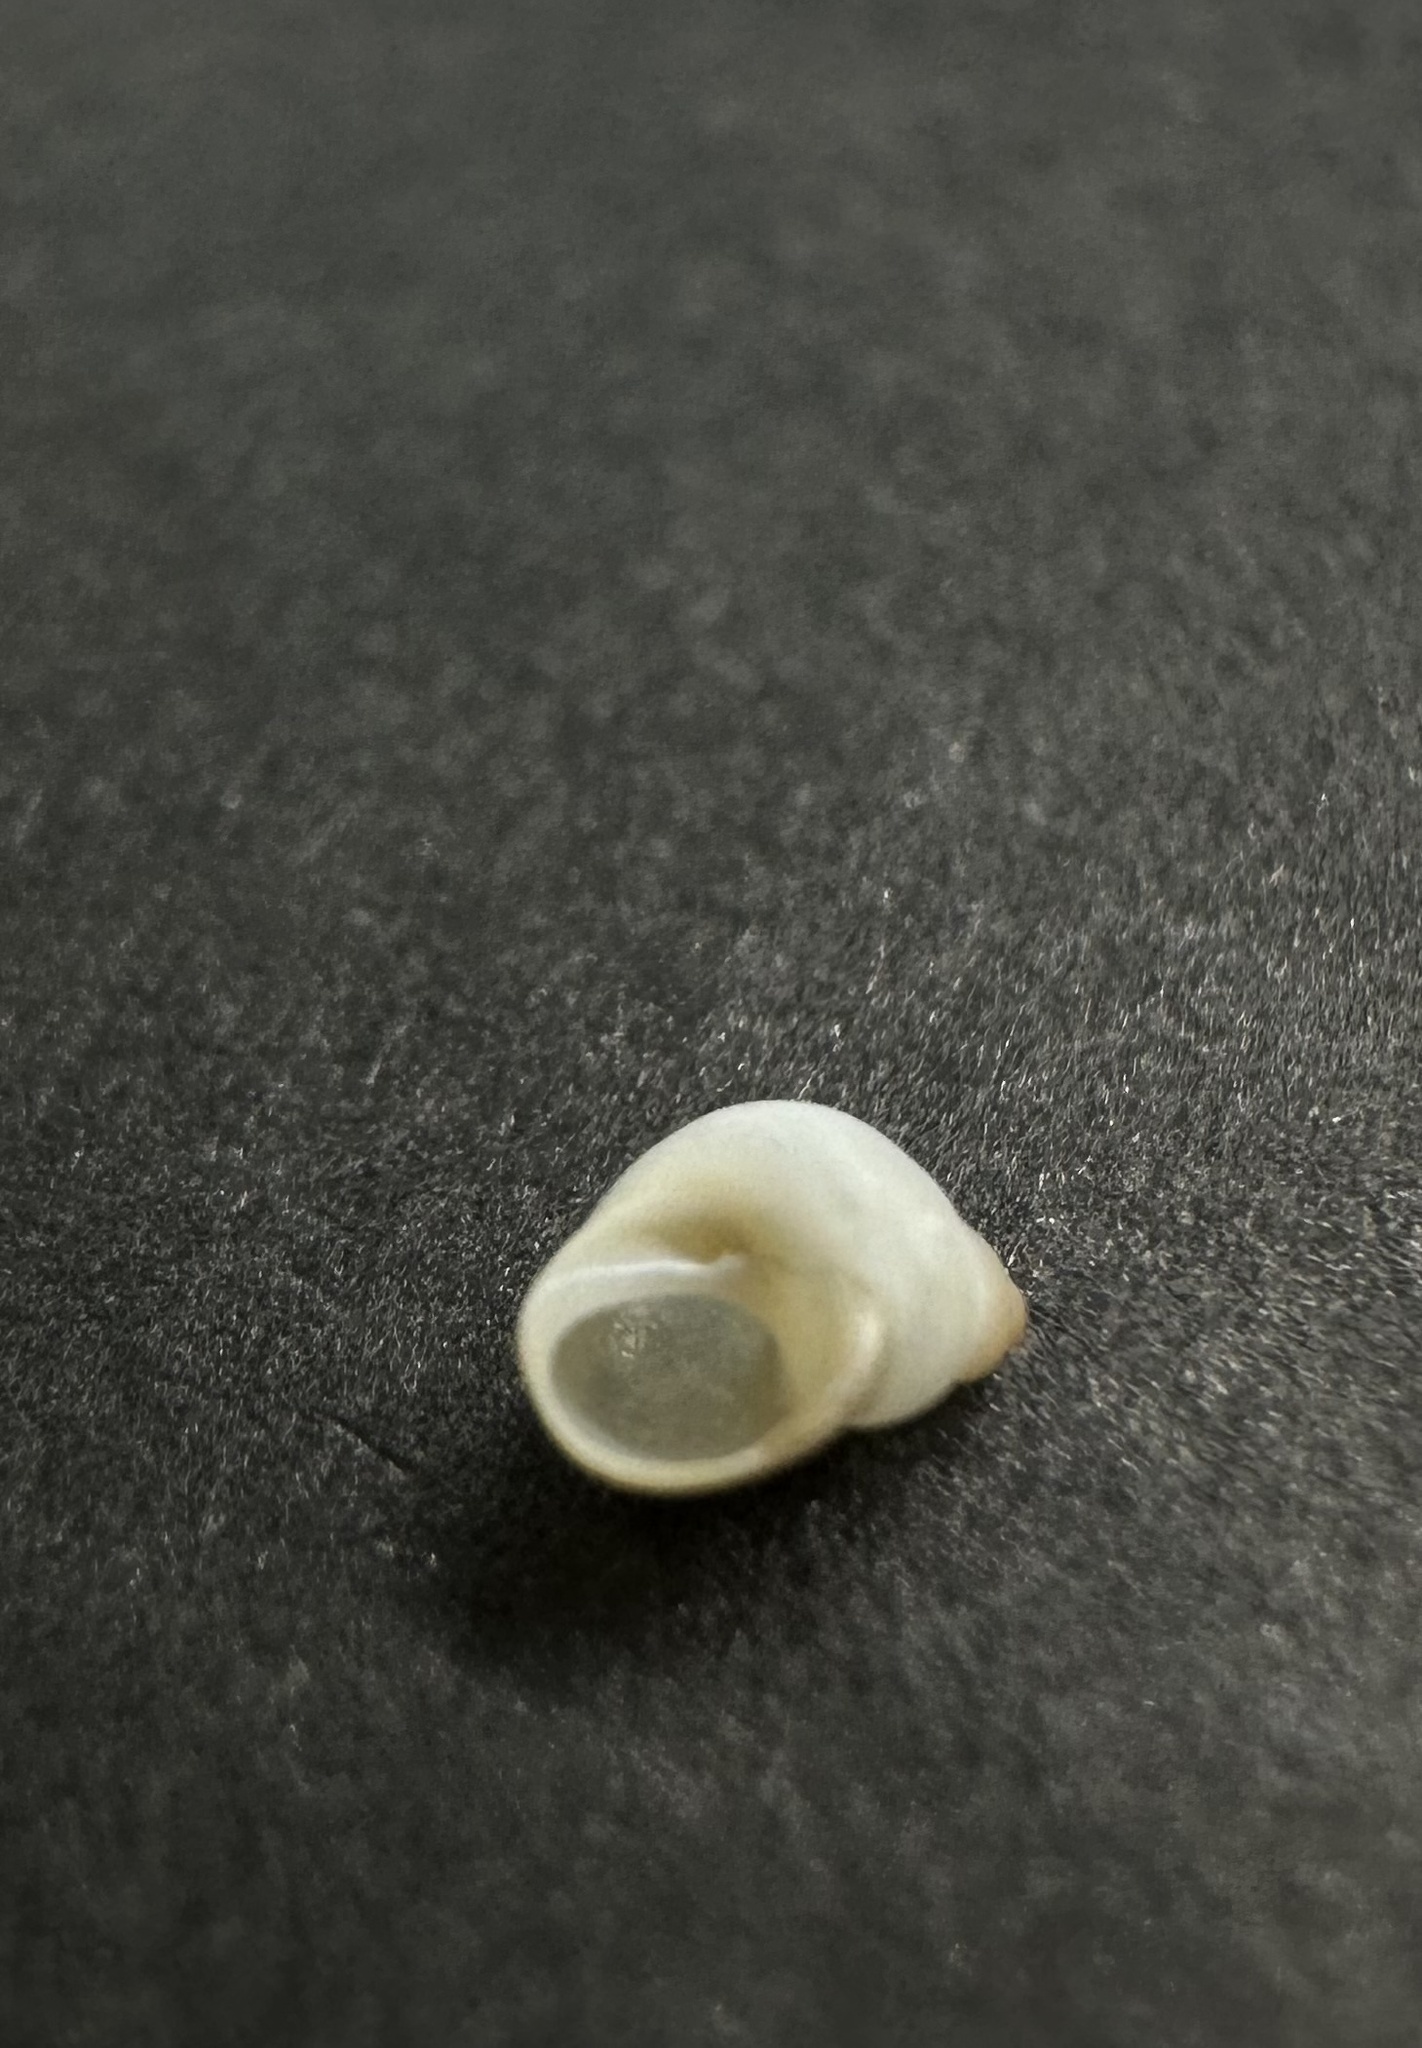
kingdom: Animalia
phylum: Mollusca
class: Gastropoda
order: Littorinimorpha
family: Littorinidae
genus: Lacuna
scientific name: Lacuna vincta
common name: Banded chink shell
